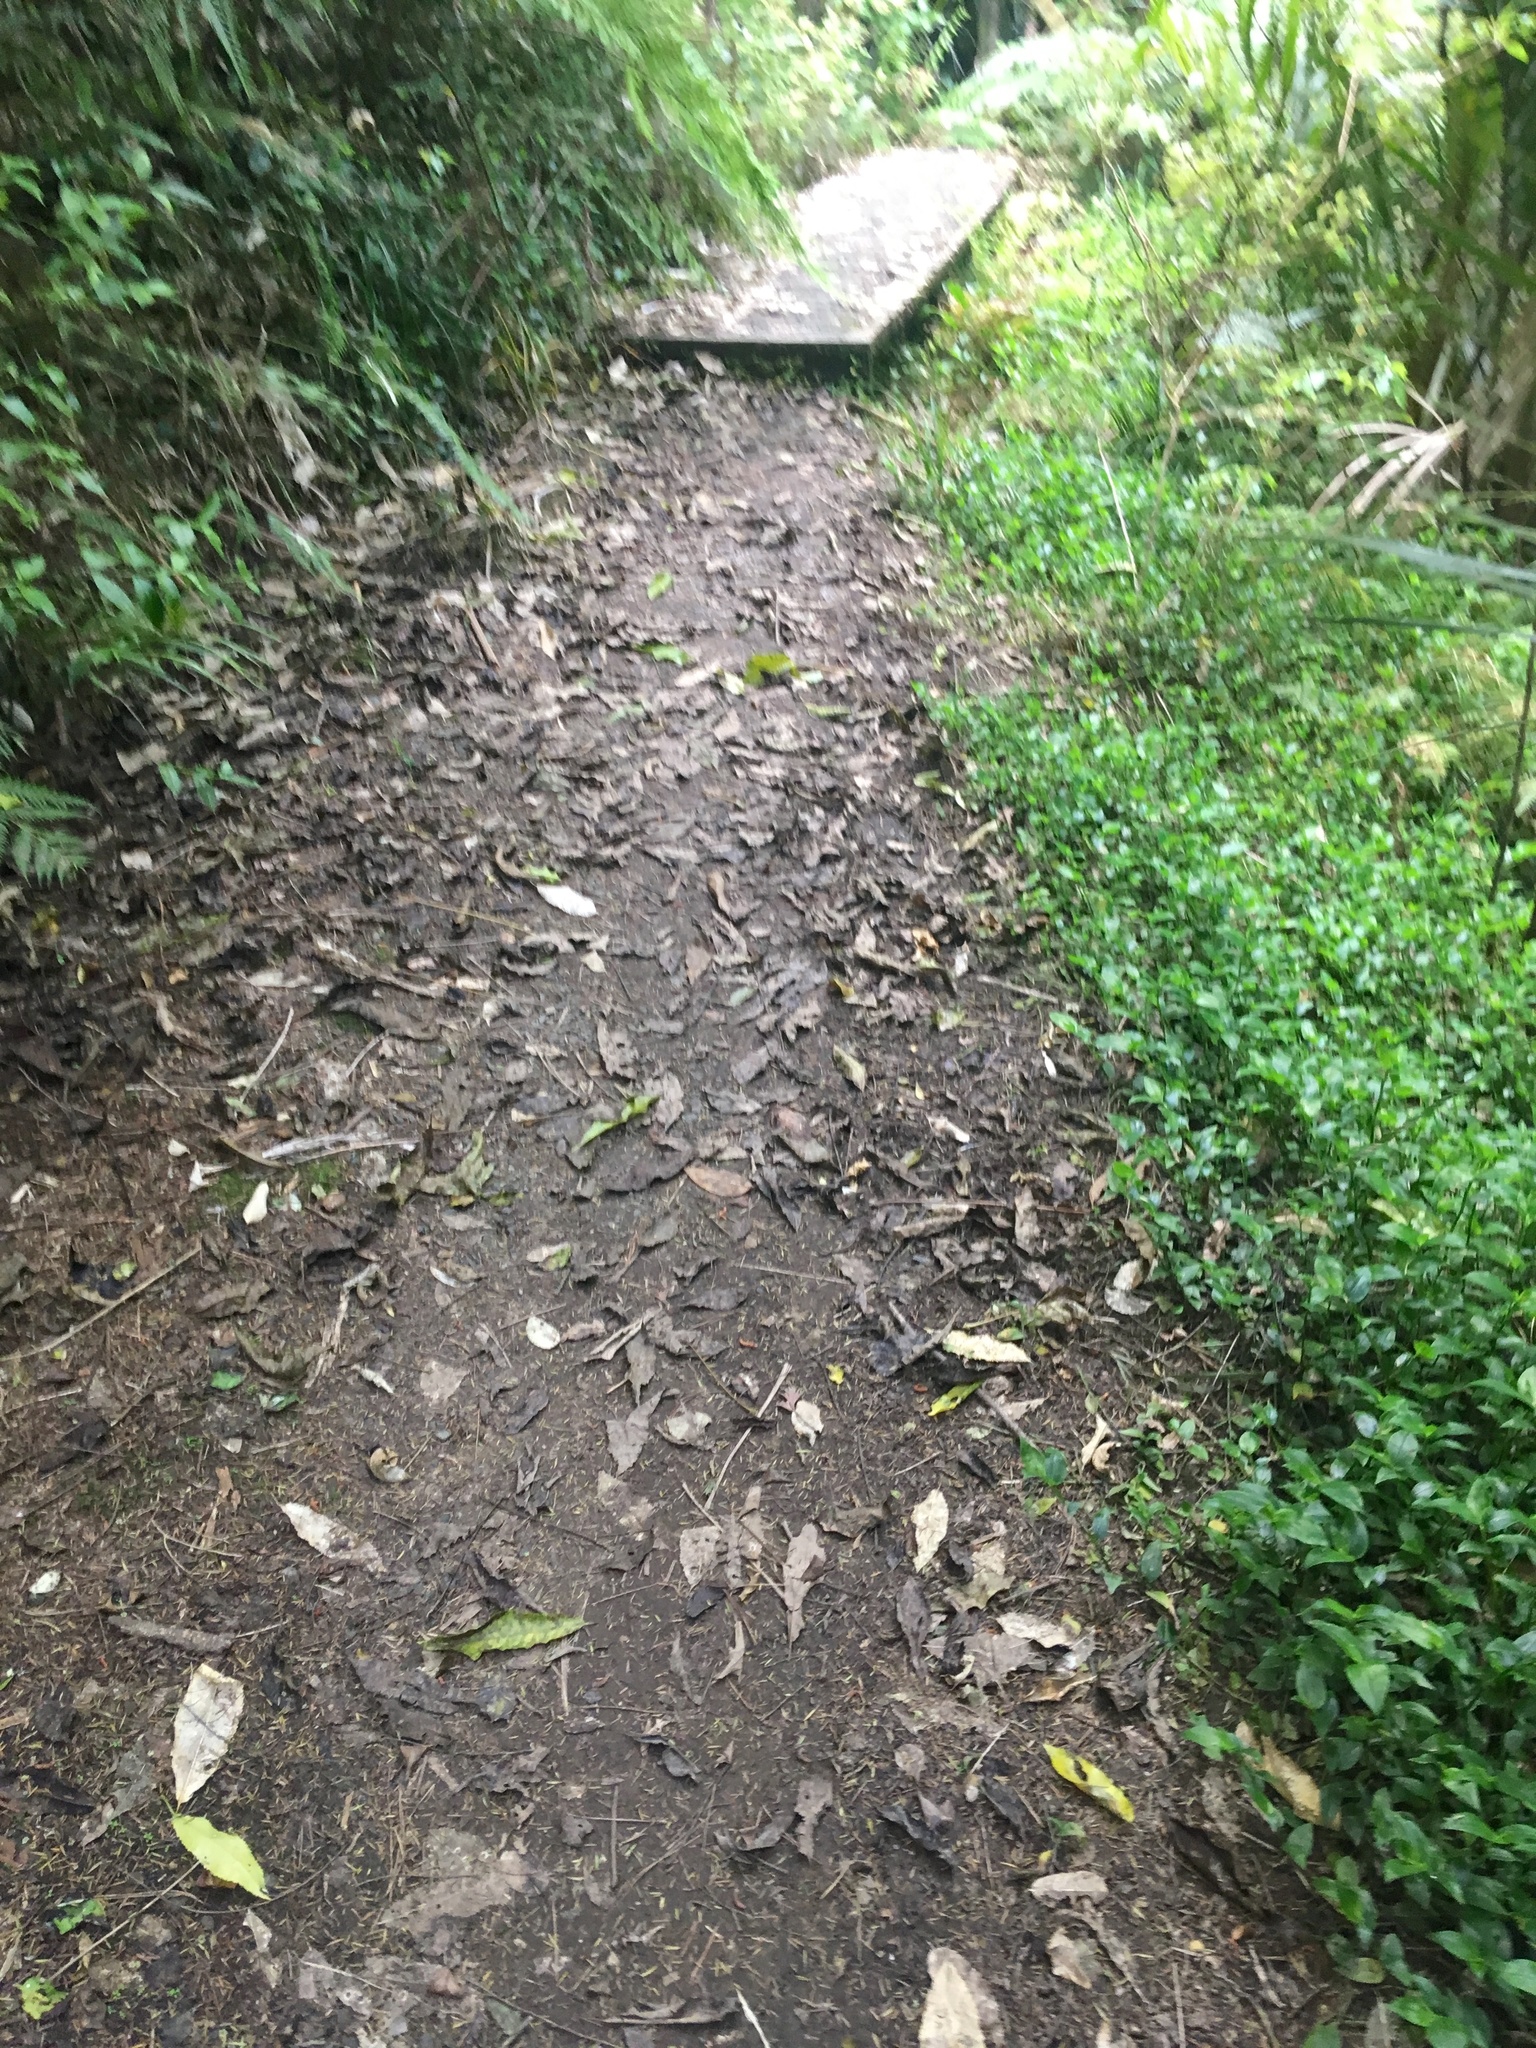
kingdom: Plantae
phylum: Tracheophyta
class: Liliopsida
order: Commelinales
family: Commelinaceae
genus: Tradescantia
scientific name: Tradescantia fluminensis
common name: Wandering-jew
